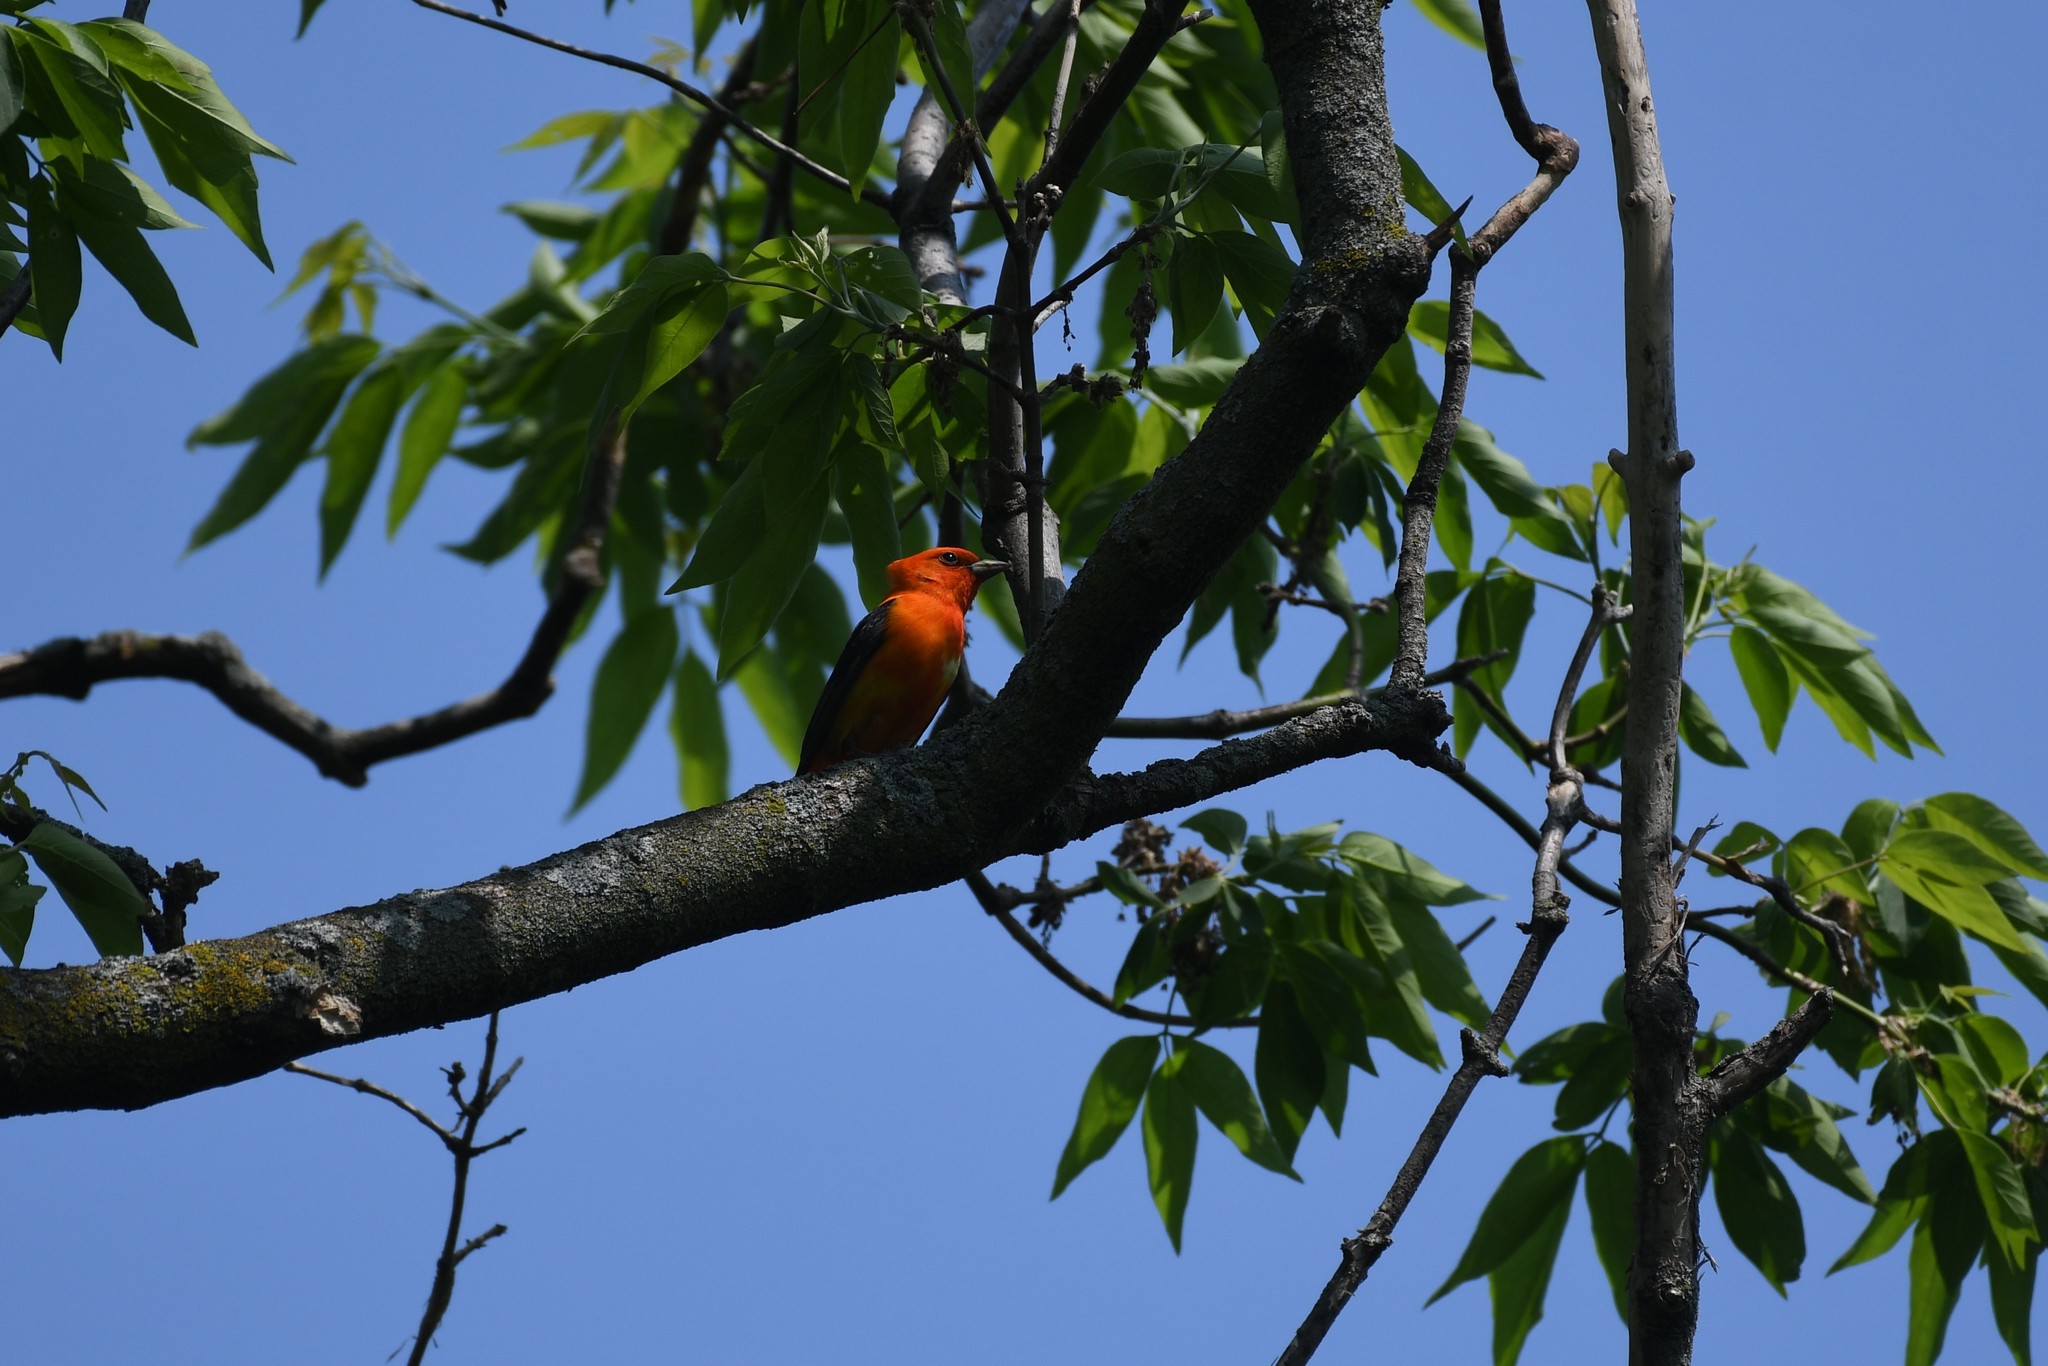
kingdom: Animalia
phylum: Chordata
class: Aves
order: Passeriformes
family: Cardinalidae
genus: Piranga
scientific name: Piranga olivacea
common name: Scarlet tanager
